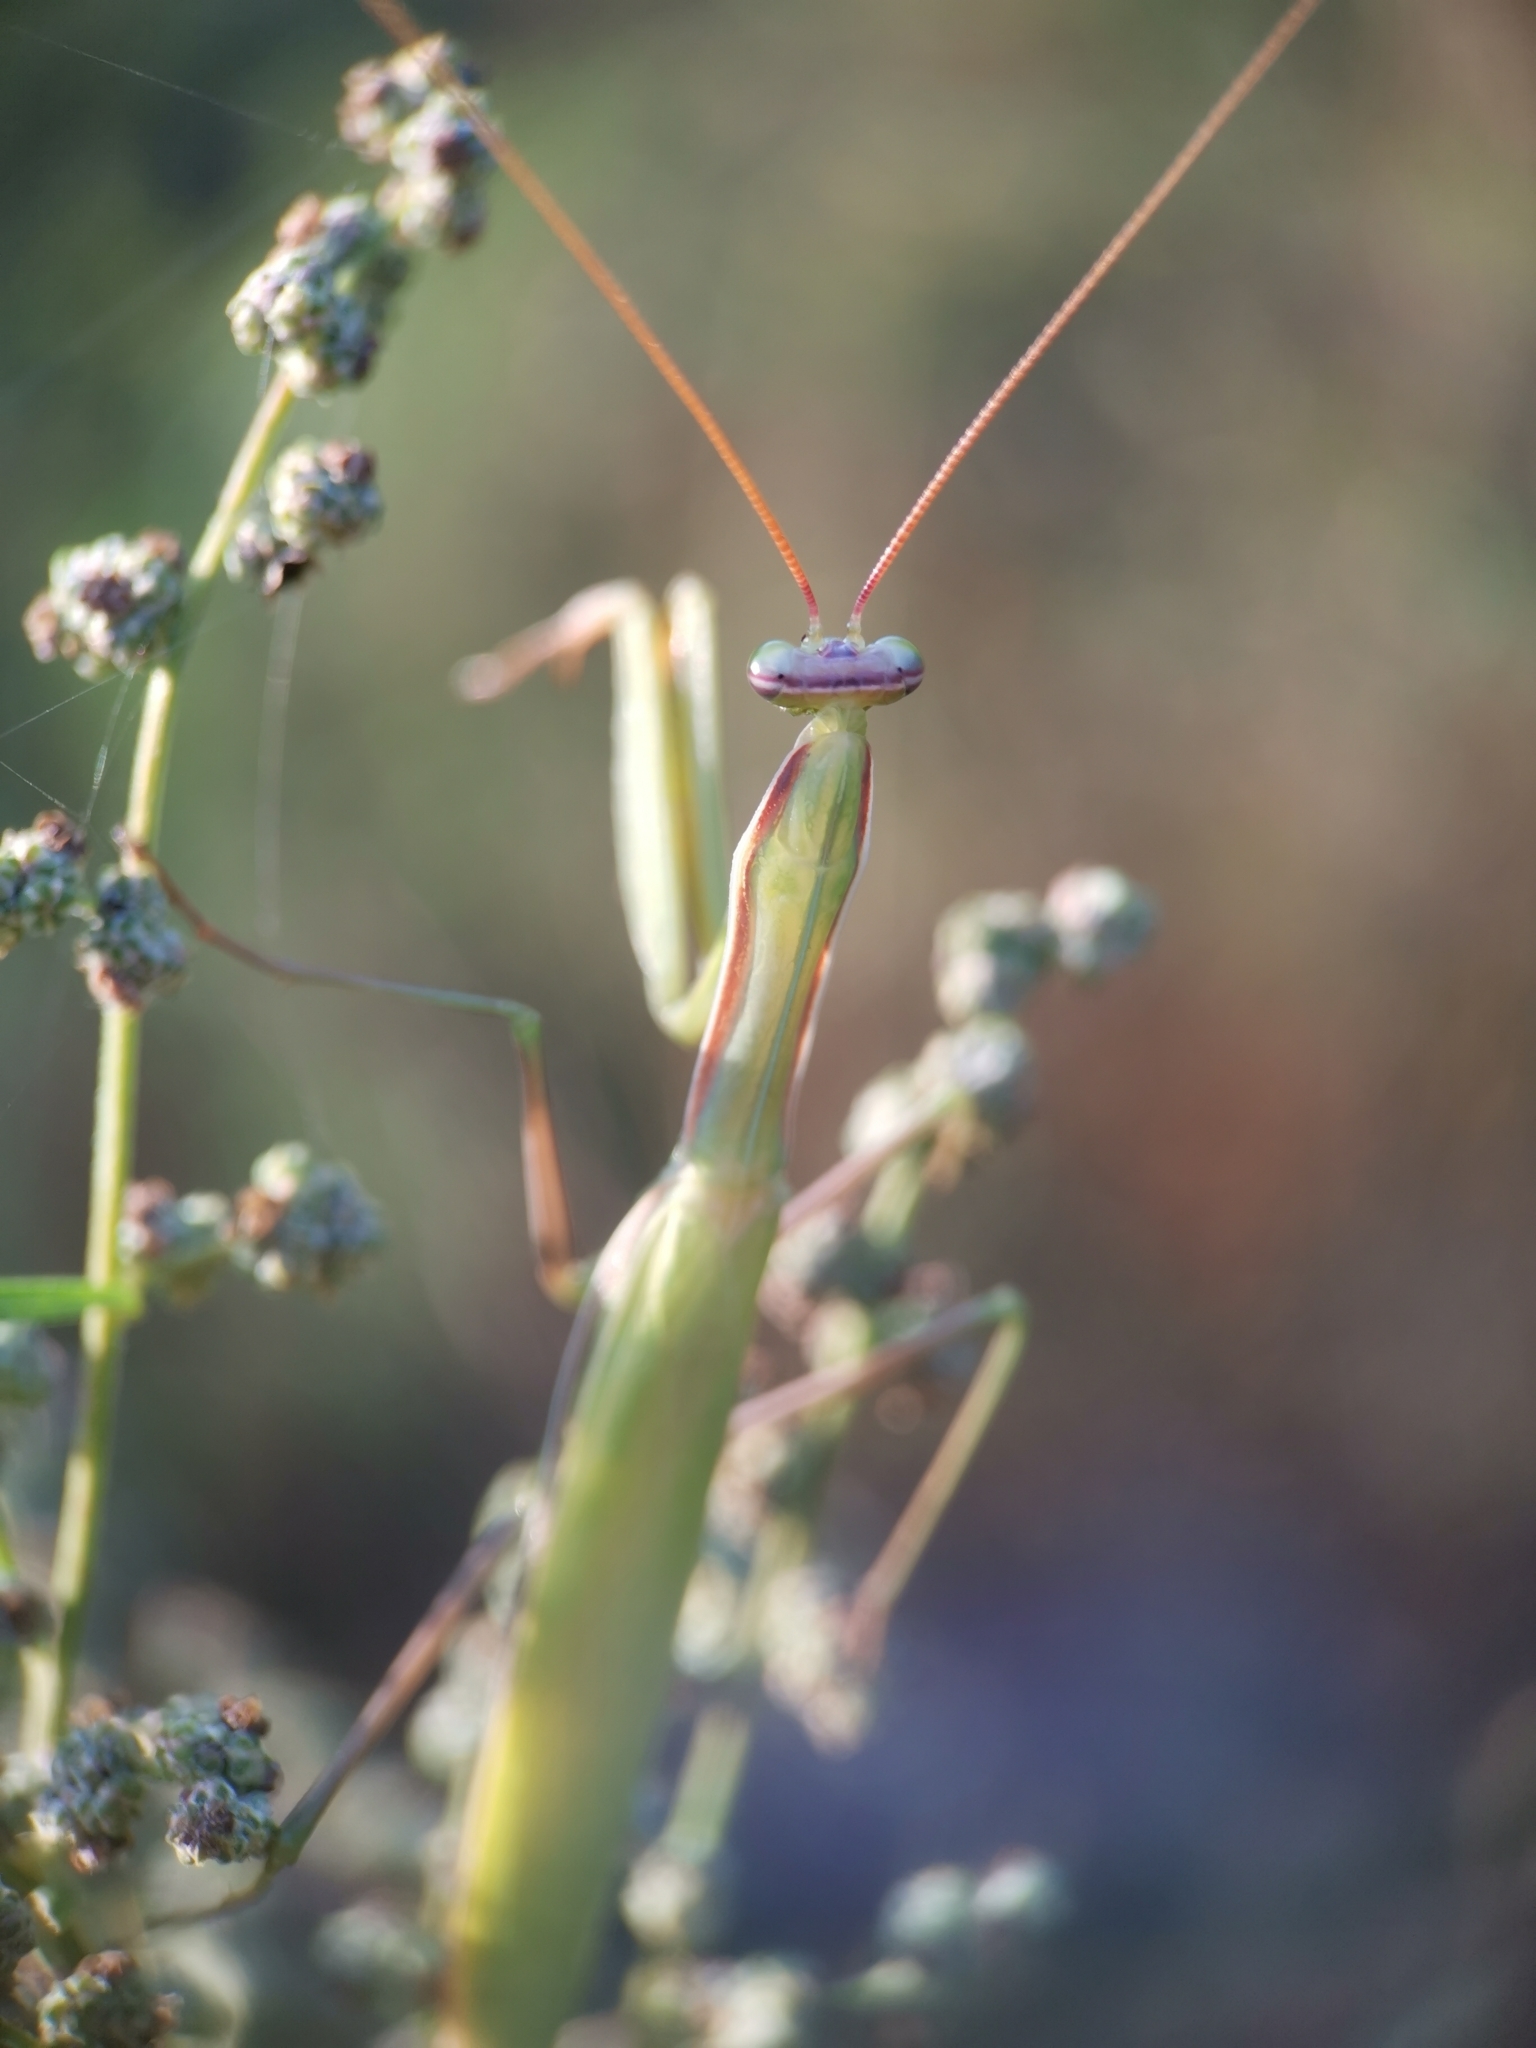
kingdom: Animalia
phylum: Arthropoda
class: Insecta
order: Mantodea
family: Mantidae
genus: Mantis
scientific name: Mantis religiosa
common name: Praying mantis
